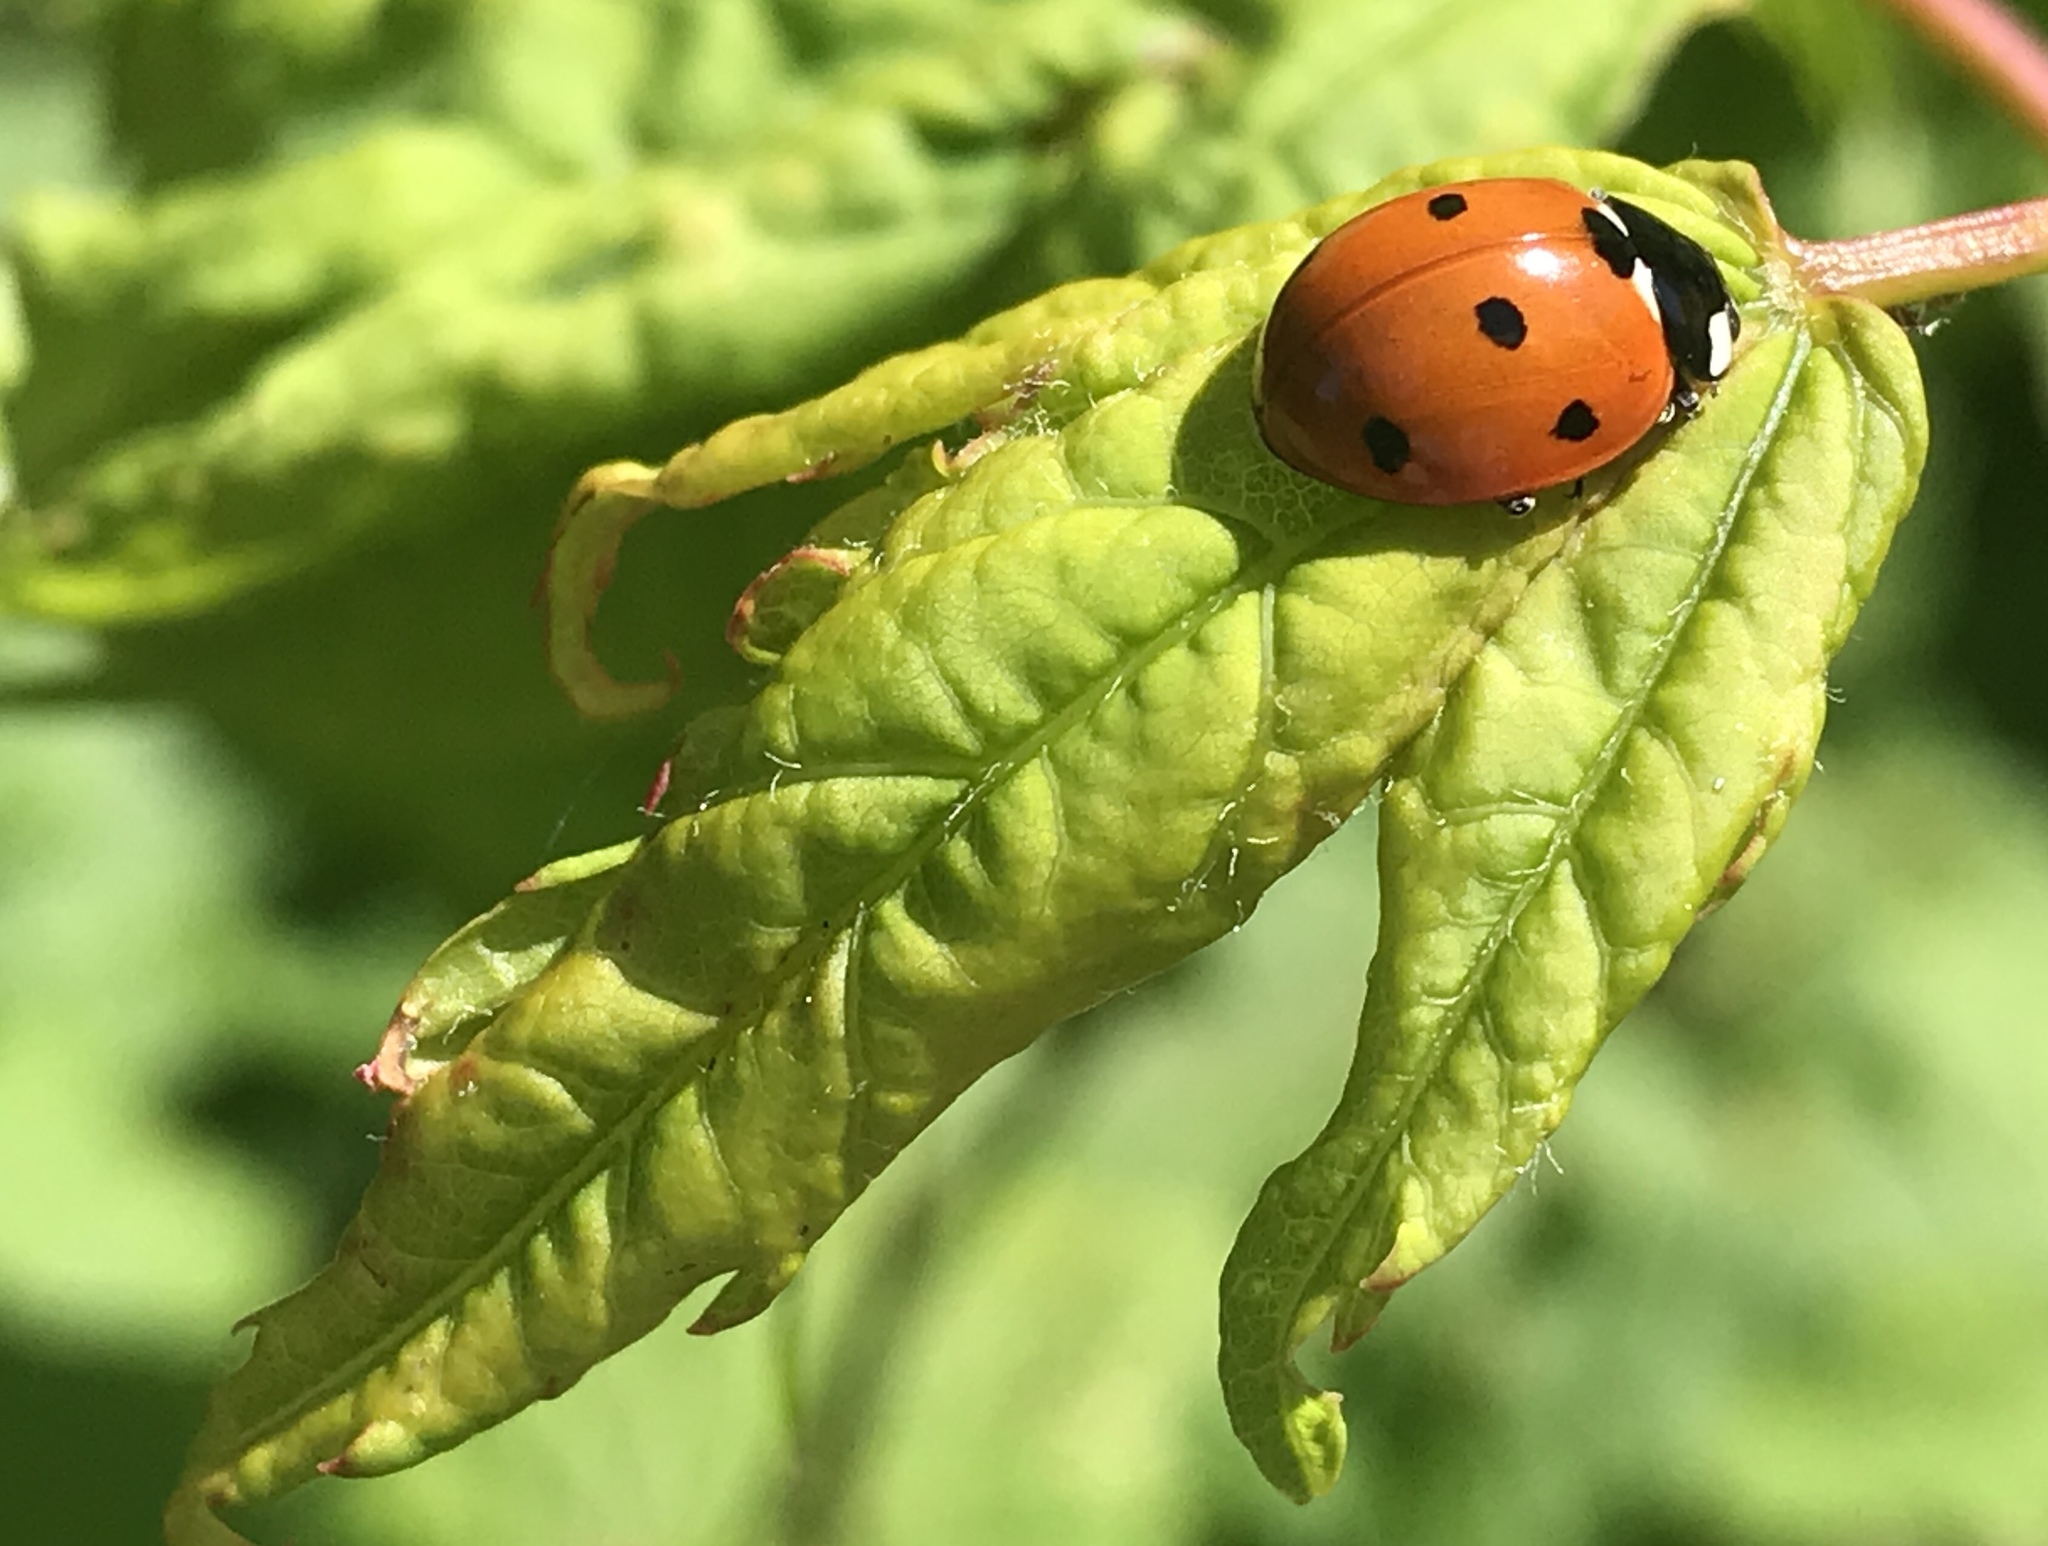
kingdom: Animalia
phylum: Arthropoda
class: Insecta
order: Coleoptera
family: Coccinellidae
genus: Coccinella
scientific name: Coccinella septempunctata
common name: Sevenspotted lady beetle
